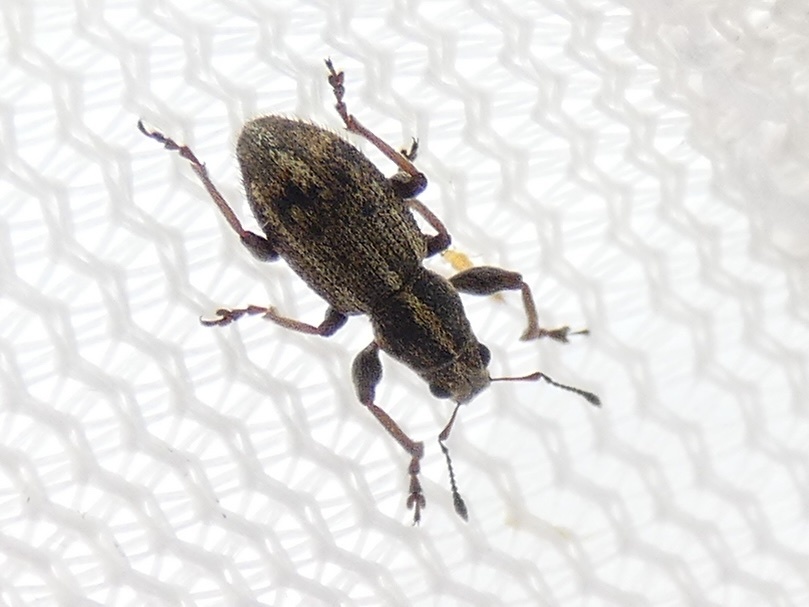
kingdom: Animalia
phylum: Arthropoda
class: Insecta
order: Coleoptera
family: Curculionidae
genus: Andrion
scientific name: Andrion regensteinense
